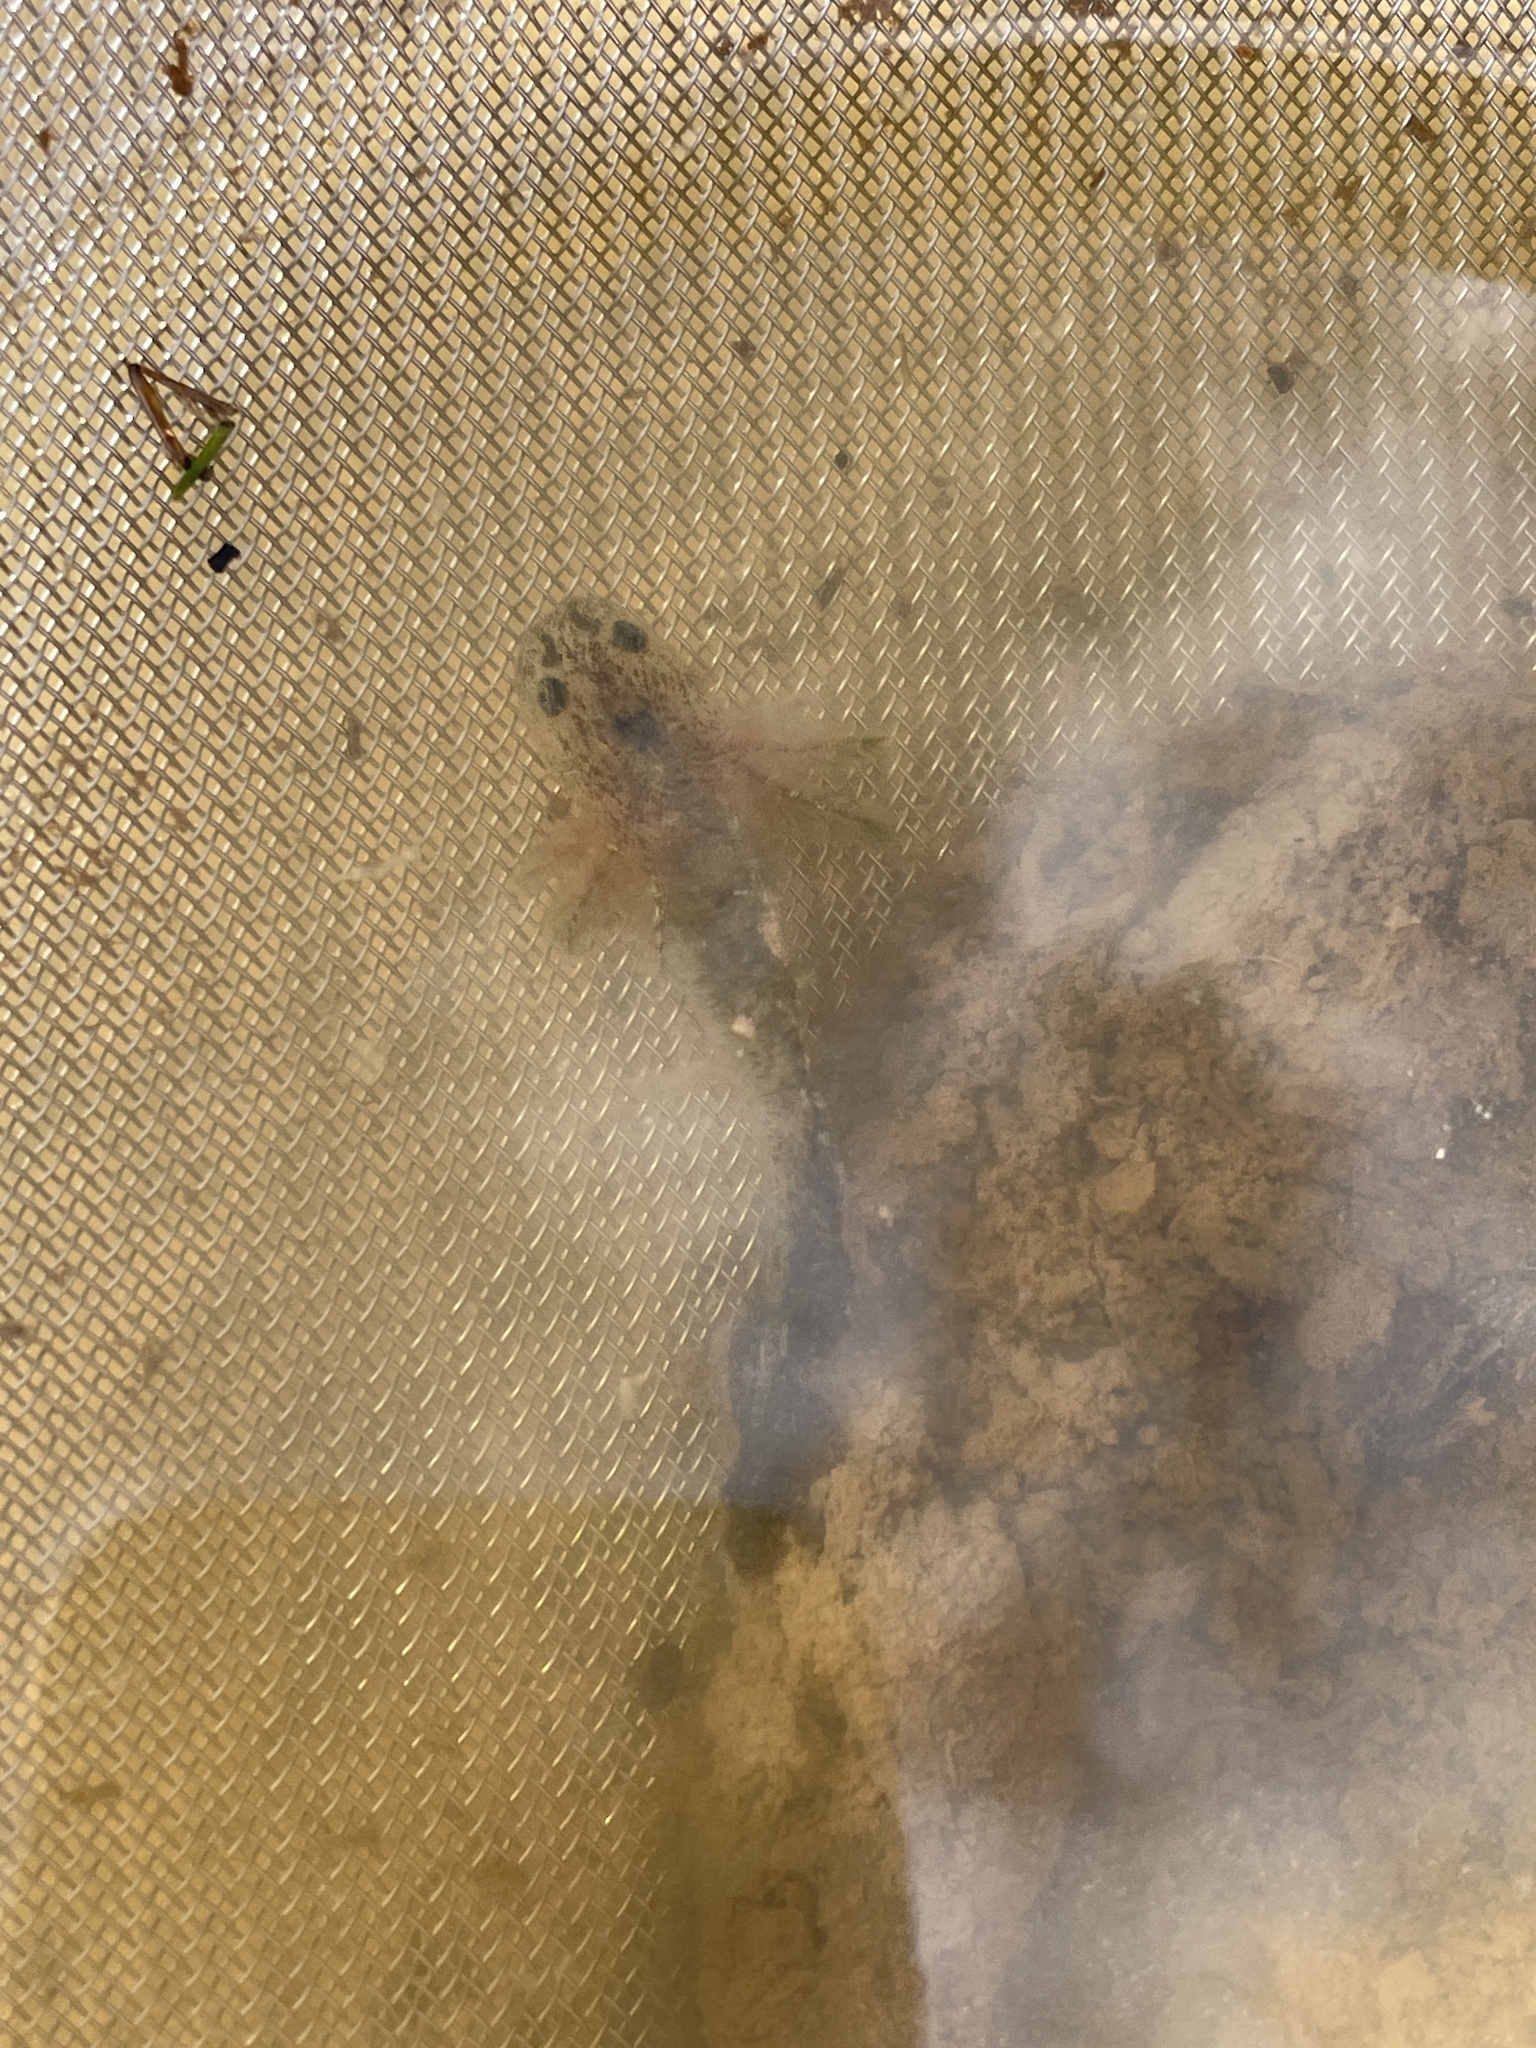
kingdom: Animalia
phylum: Chordata
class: Amphibia
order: Caudata
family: Ambystomatidae
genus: Ambystoma
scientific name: Ambystoma mavortium
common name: Western tiger salamander
